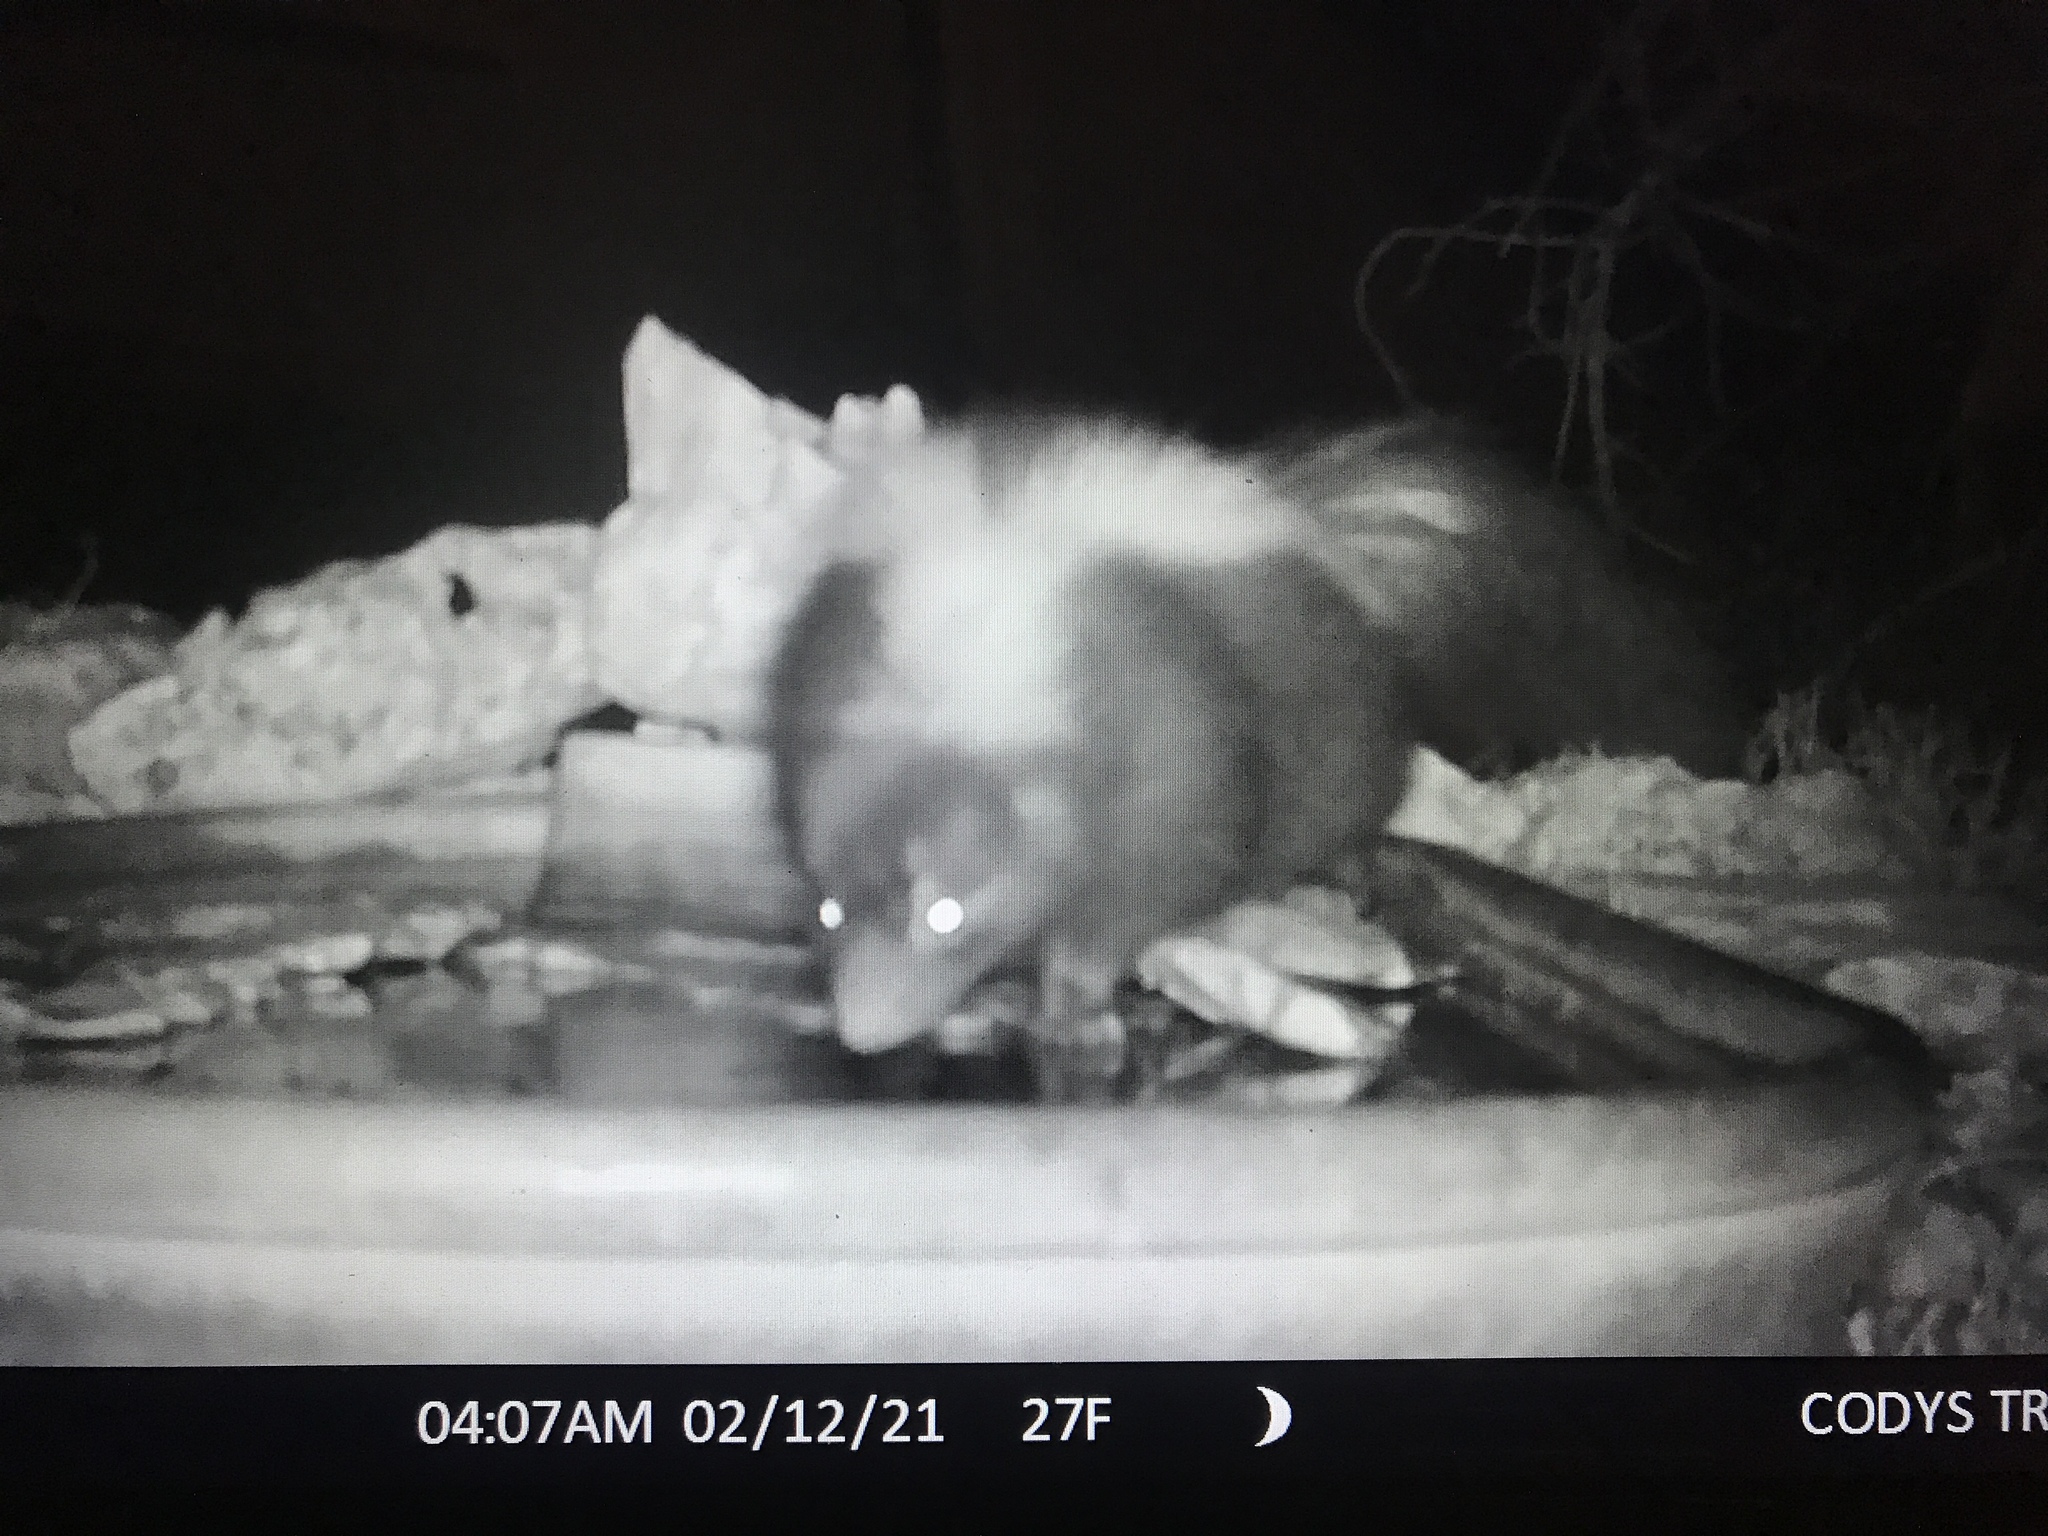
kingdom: Animalia
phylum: Chordata
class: Mammalia
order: Carnivora
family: Mephitidae
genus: Mephitis
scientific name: Mephitis mephitis
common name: Striped skunk
